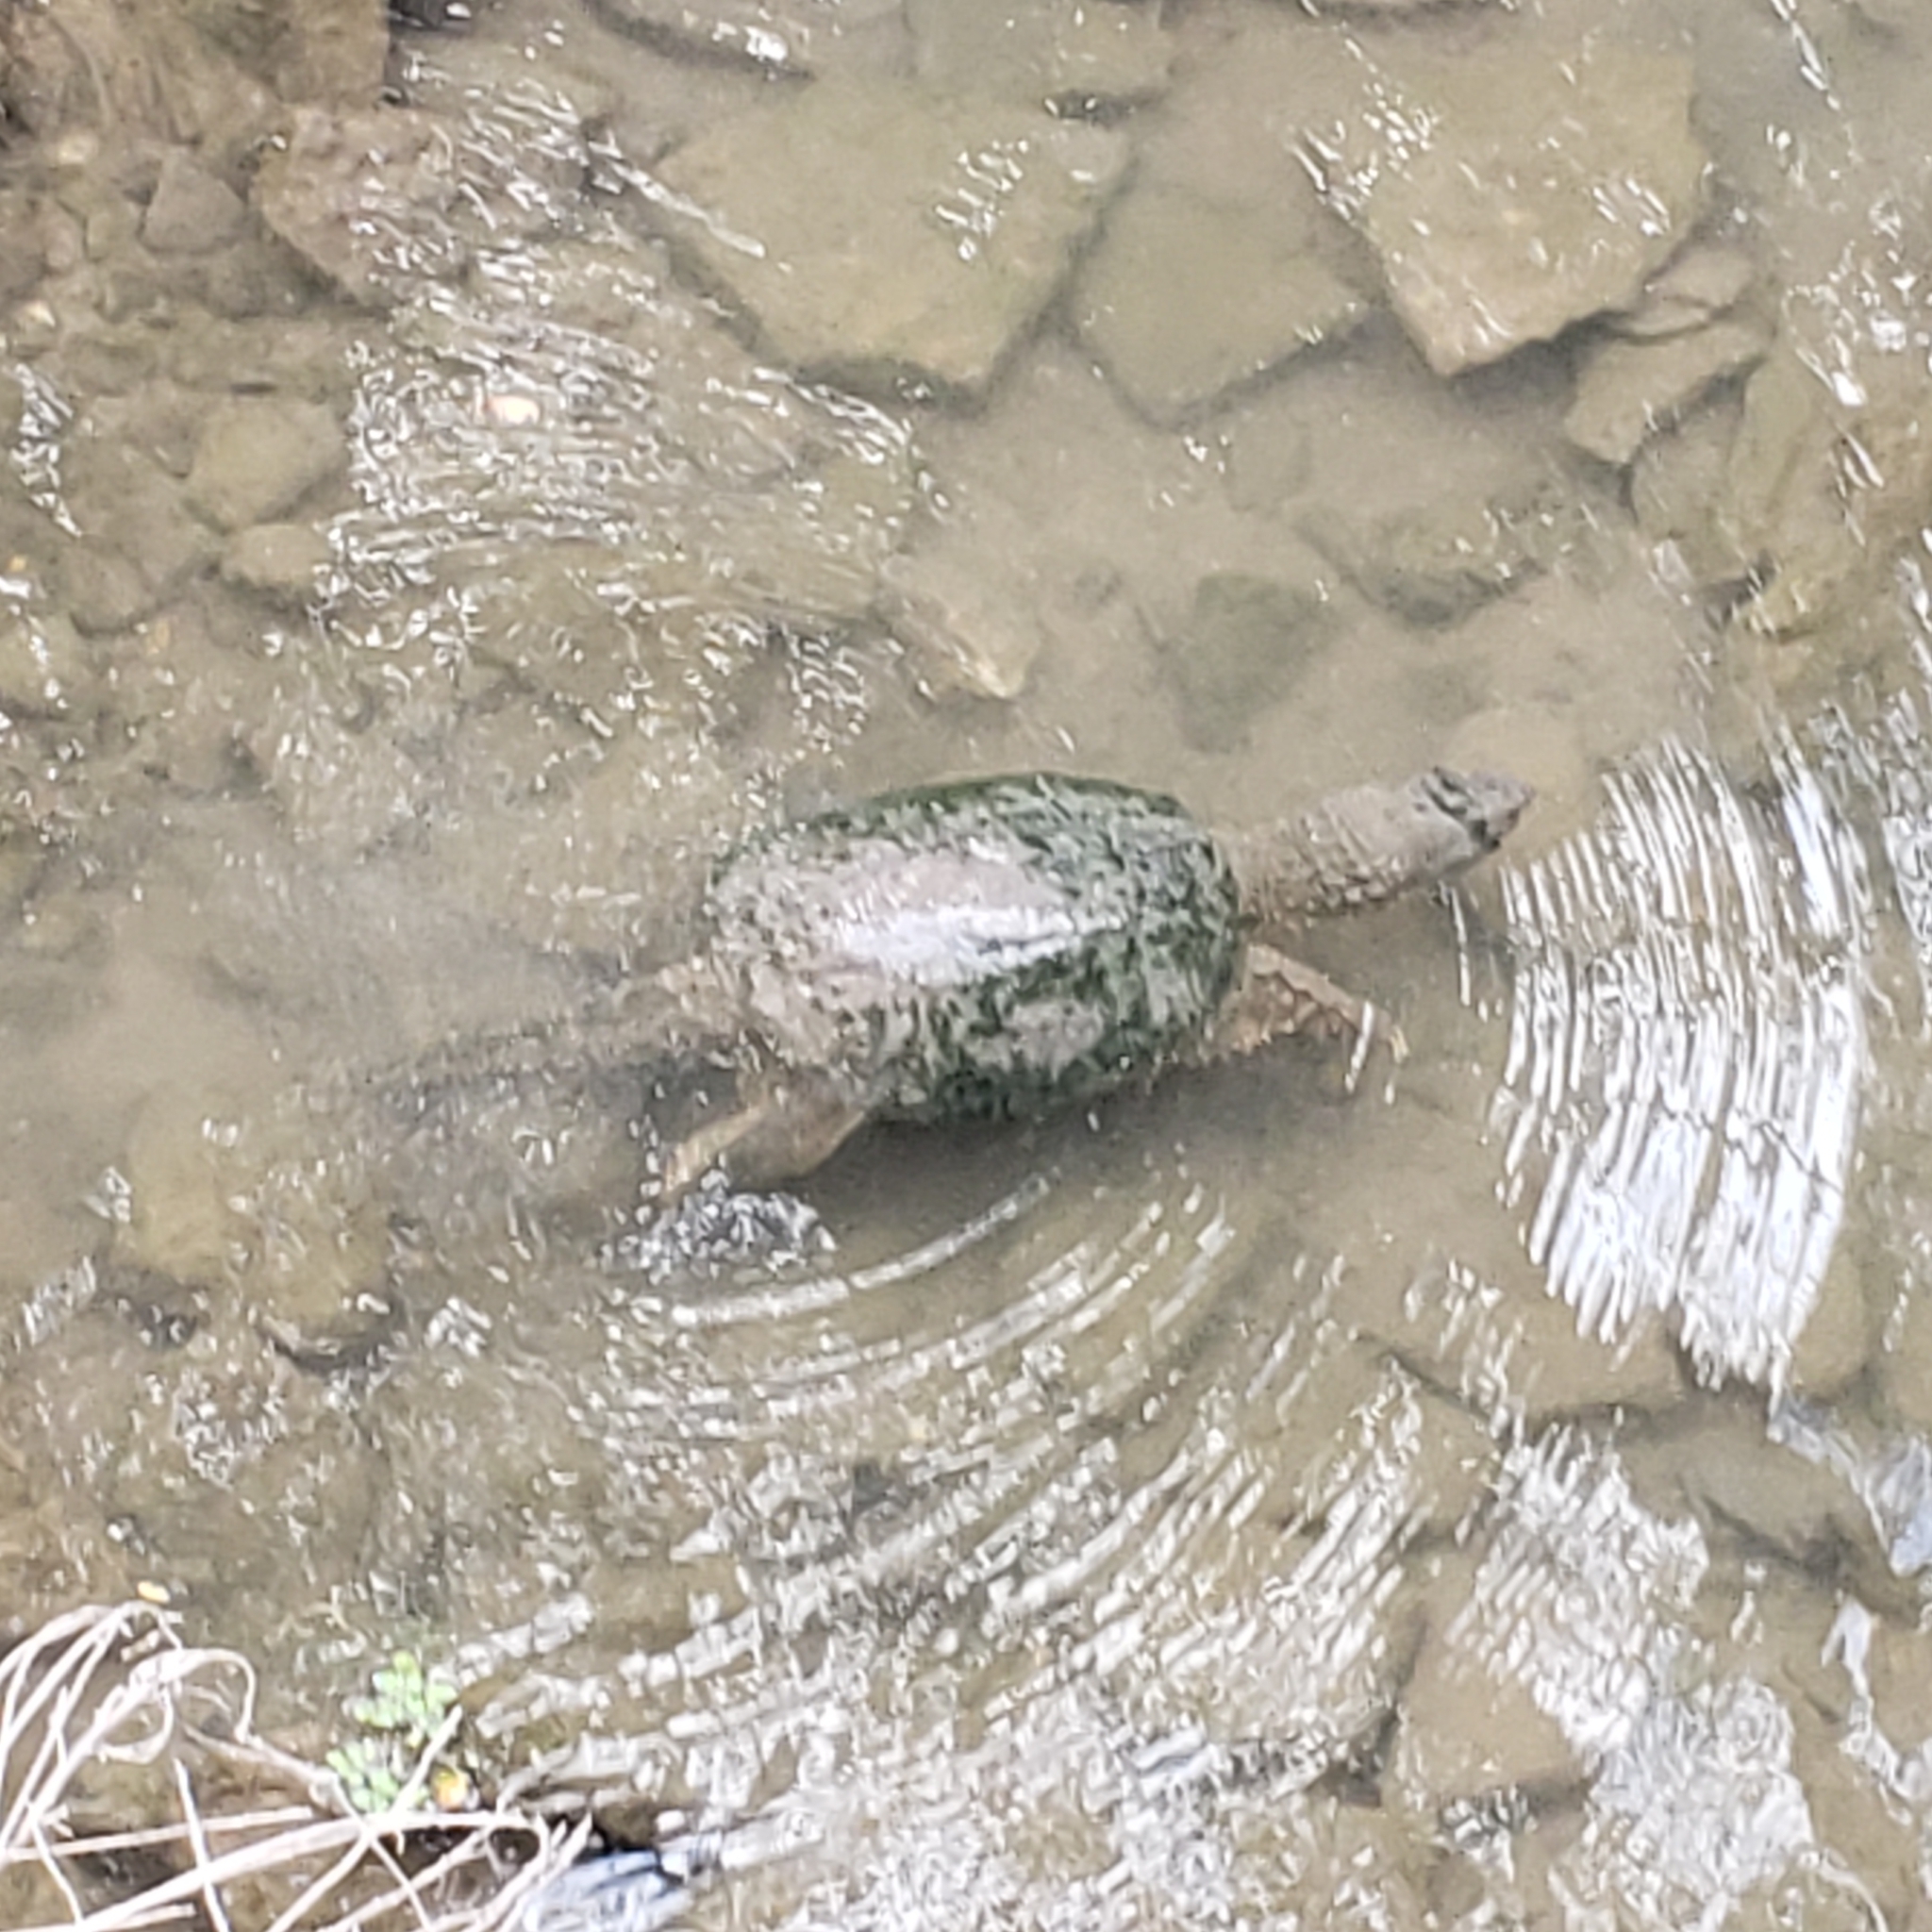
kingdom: Animalia
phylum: Chordata
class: Testudines
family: Chelydridae
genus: Chelydra
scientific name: Chelydra serpentina
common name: Common snapping turtle
